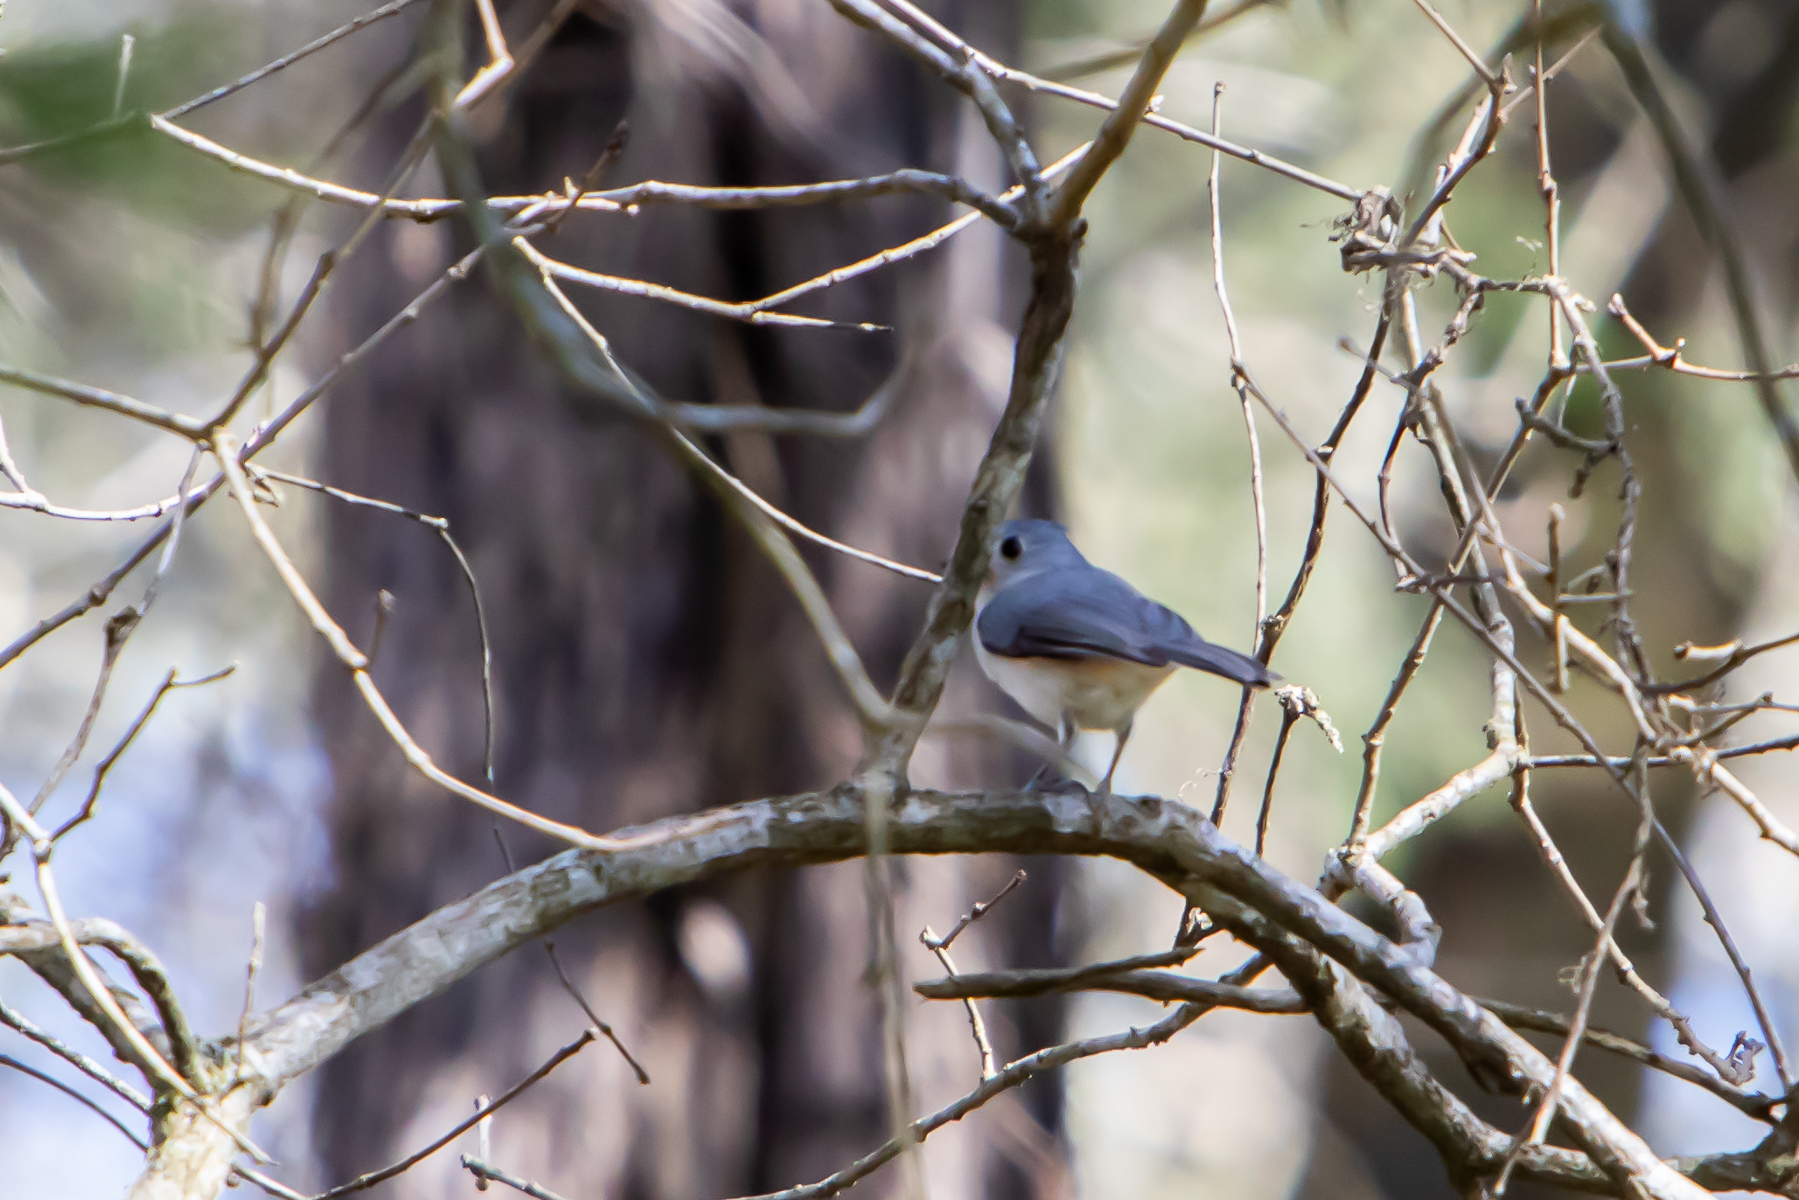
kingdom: Animalia
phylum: Chordata
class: Aves
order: Passeriformes
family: Paridae
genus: Baeolophus
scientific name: Baeolophus bicolor
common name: Tufted titmouse
